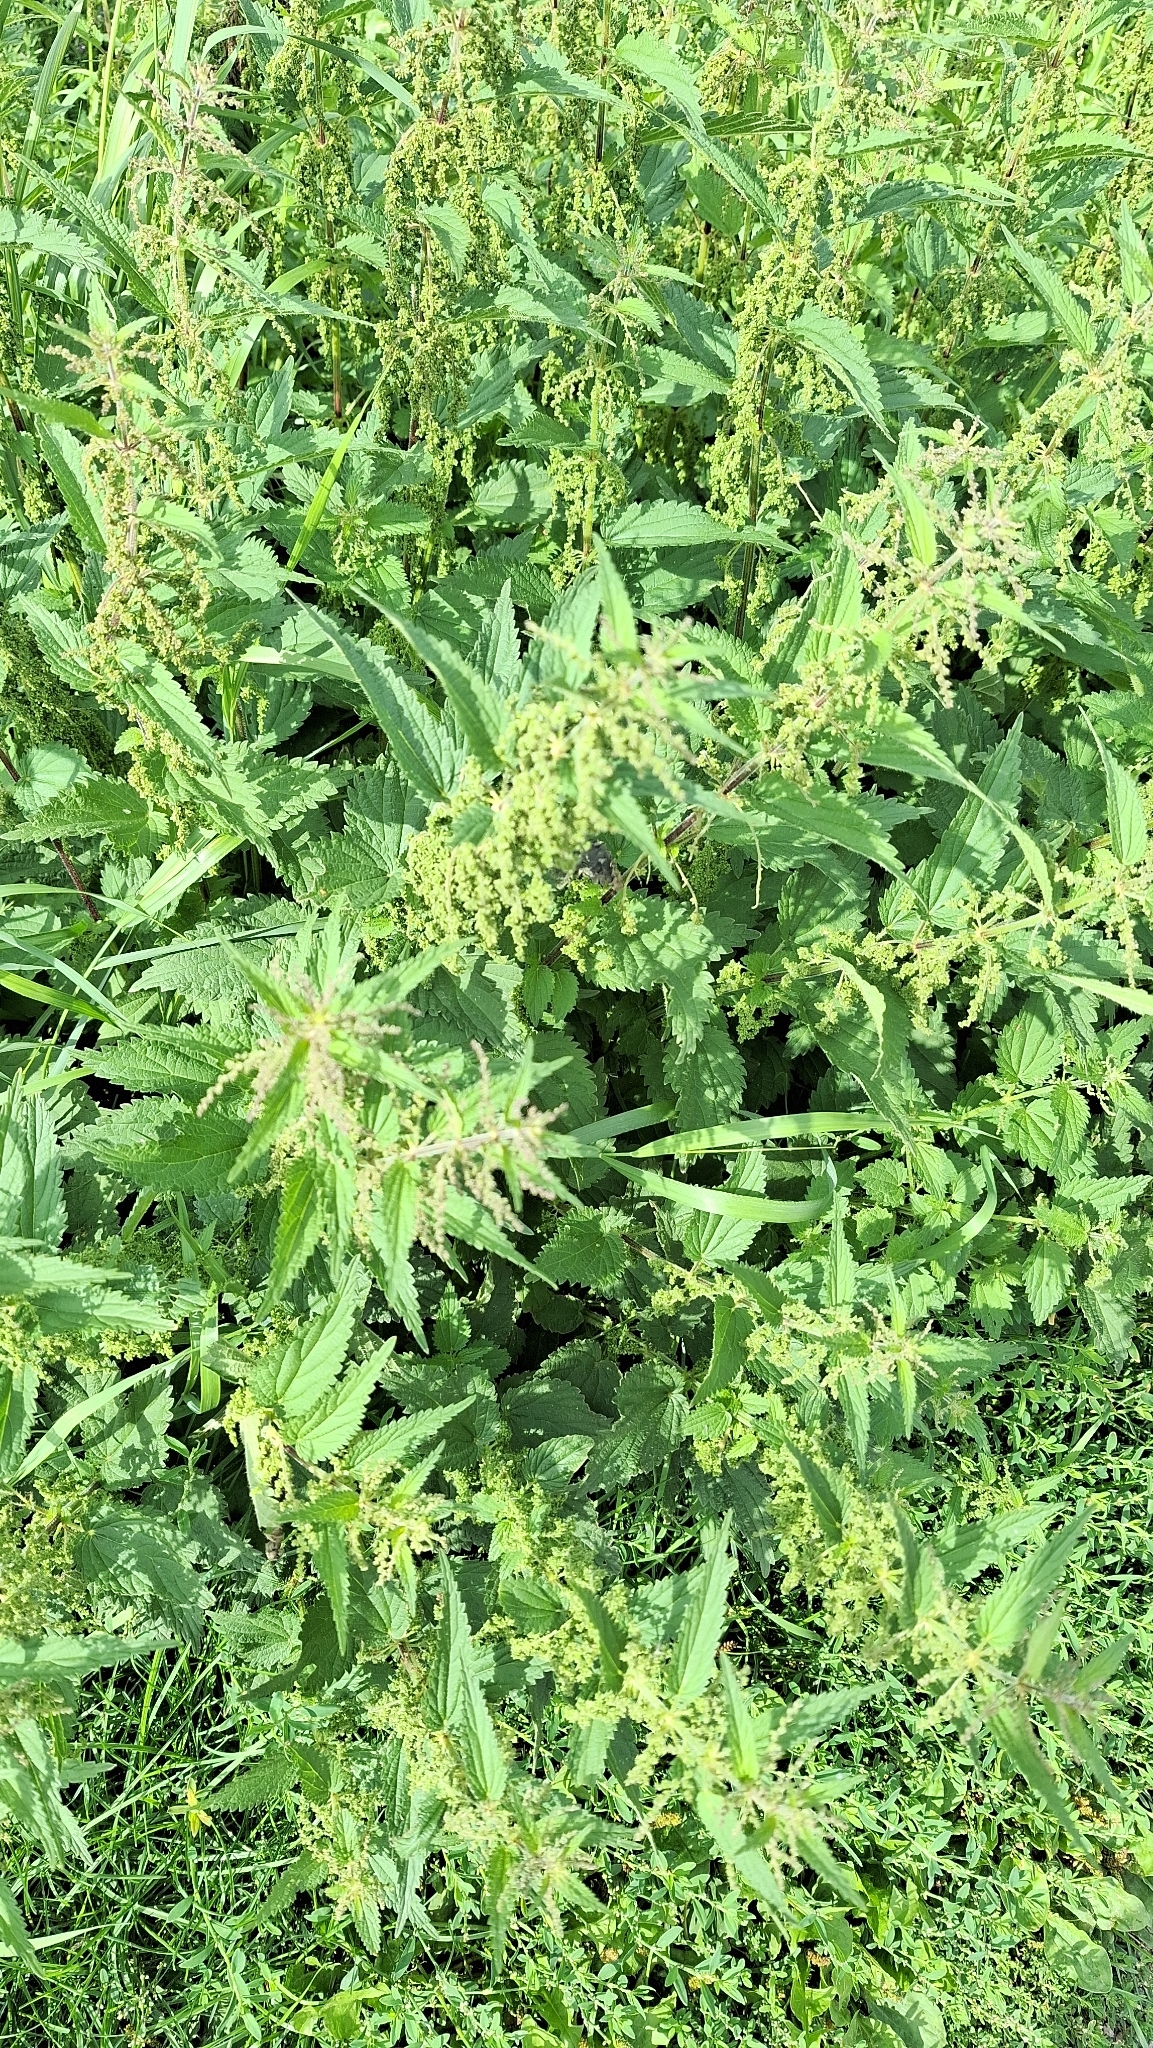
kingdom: Plantae
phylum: Tracheophyta
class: Magnoliopsida
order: Rosales
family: Urticaceae
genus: Urtica
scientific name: Urtica dioica
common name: Common nettle
